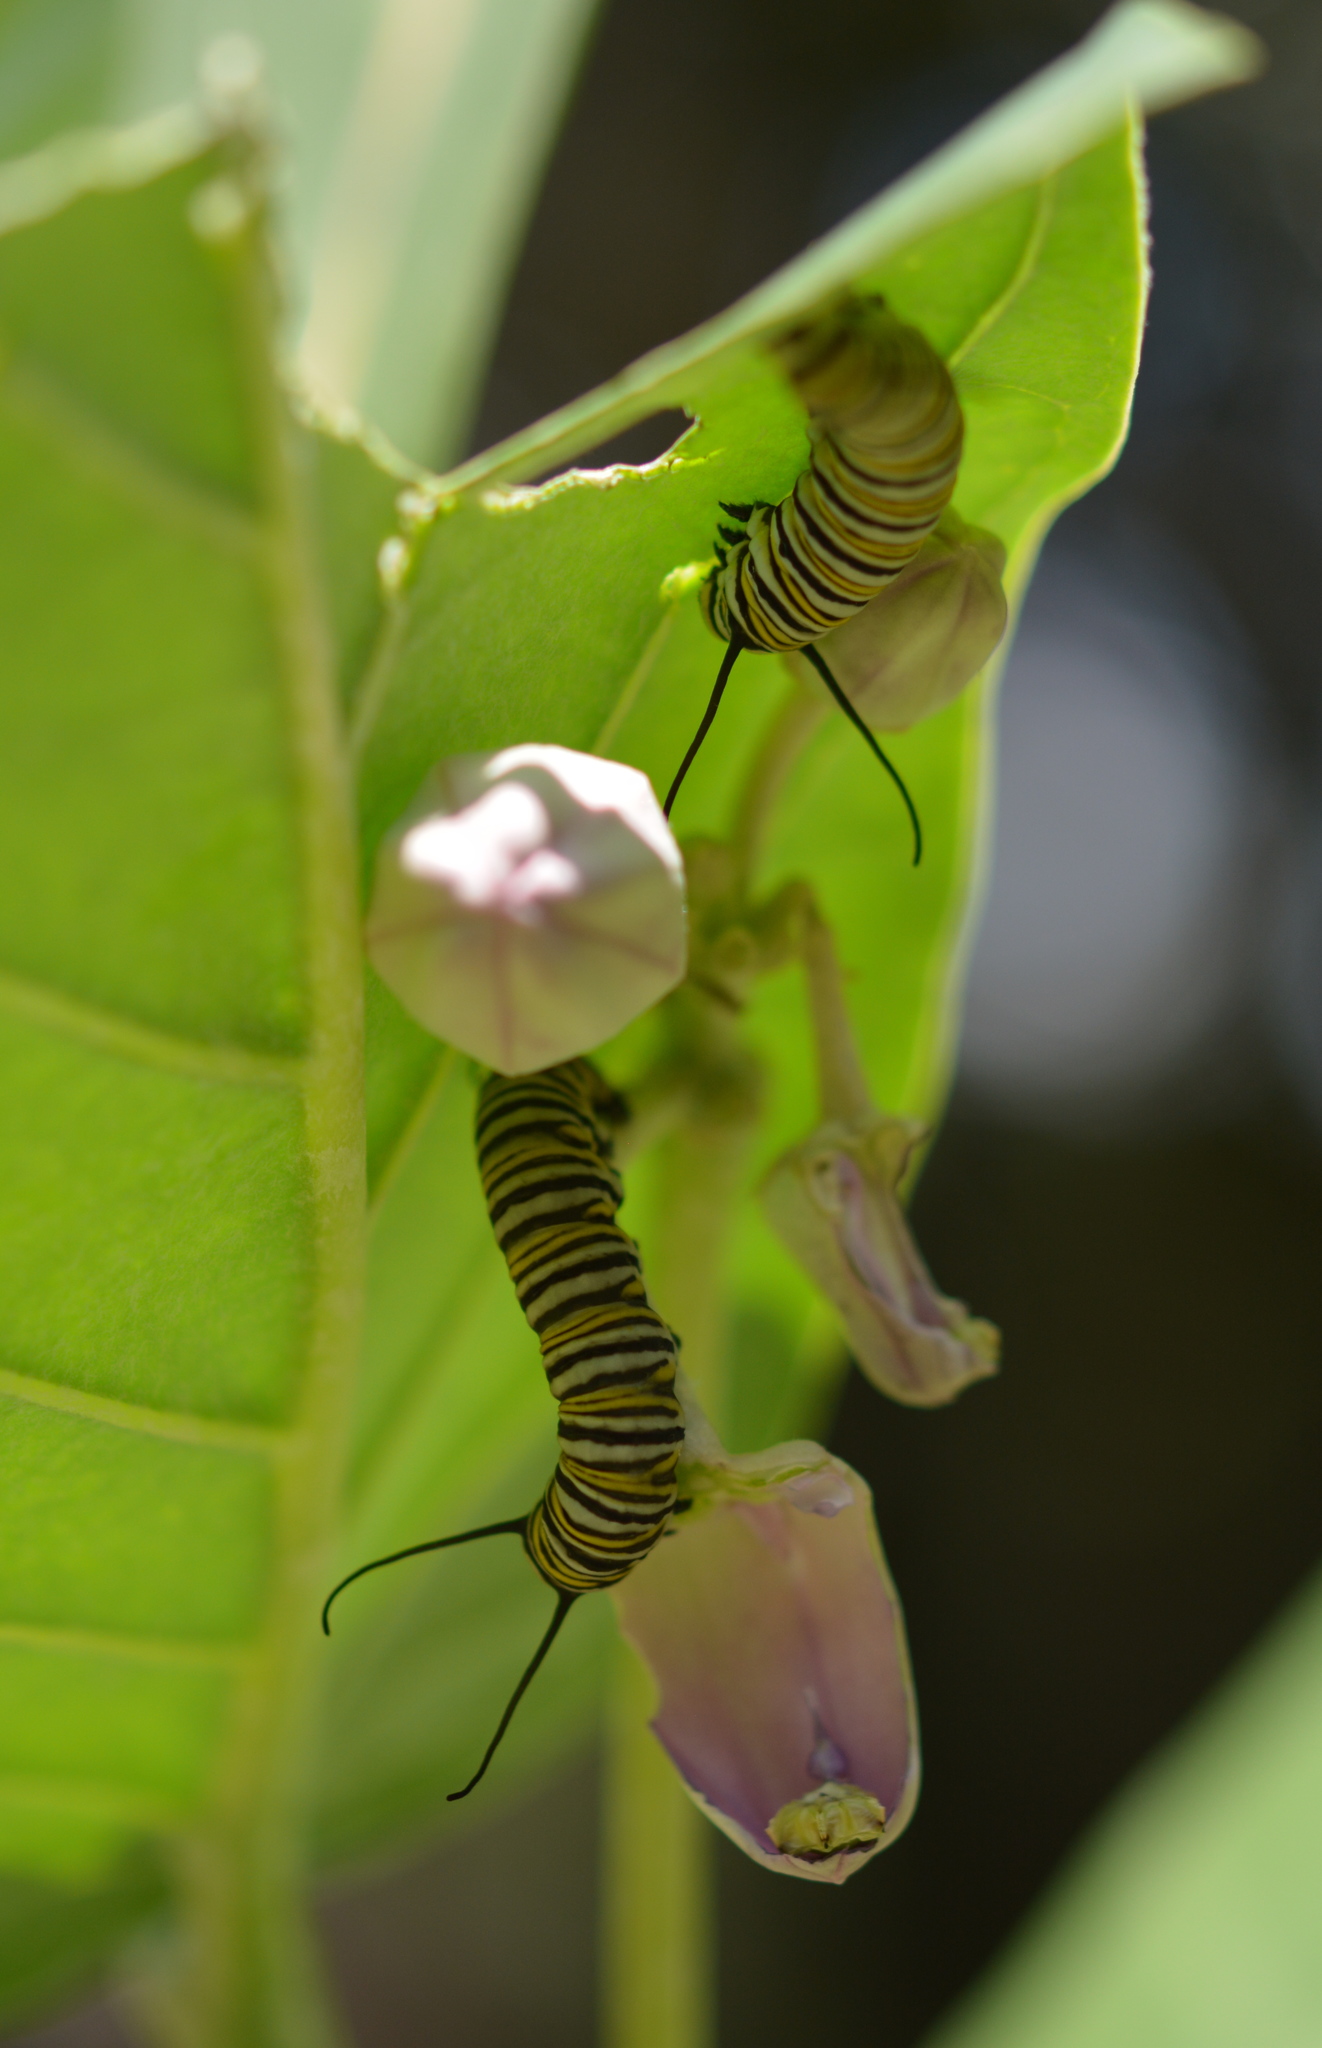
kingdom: Animalia
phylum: Arthropoda
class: Insecta
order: Lepidoptera
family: Nymphalidae
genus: Danaus
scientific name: Danaus plexippus
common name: Monarch
